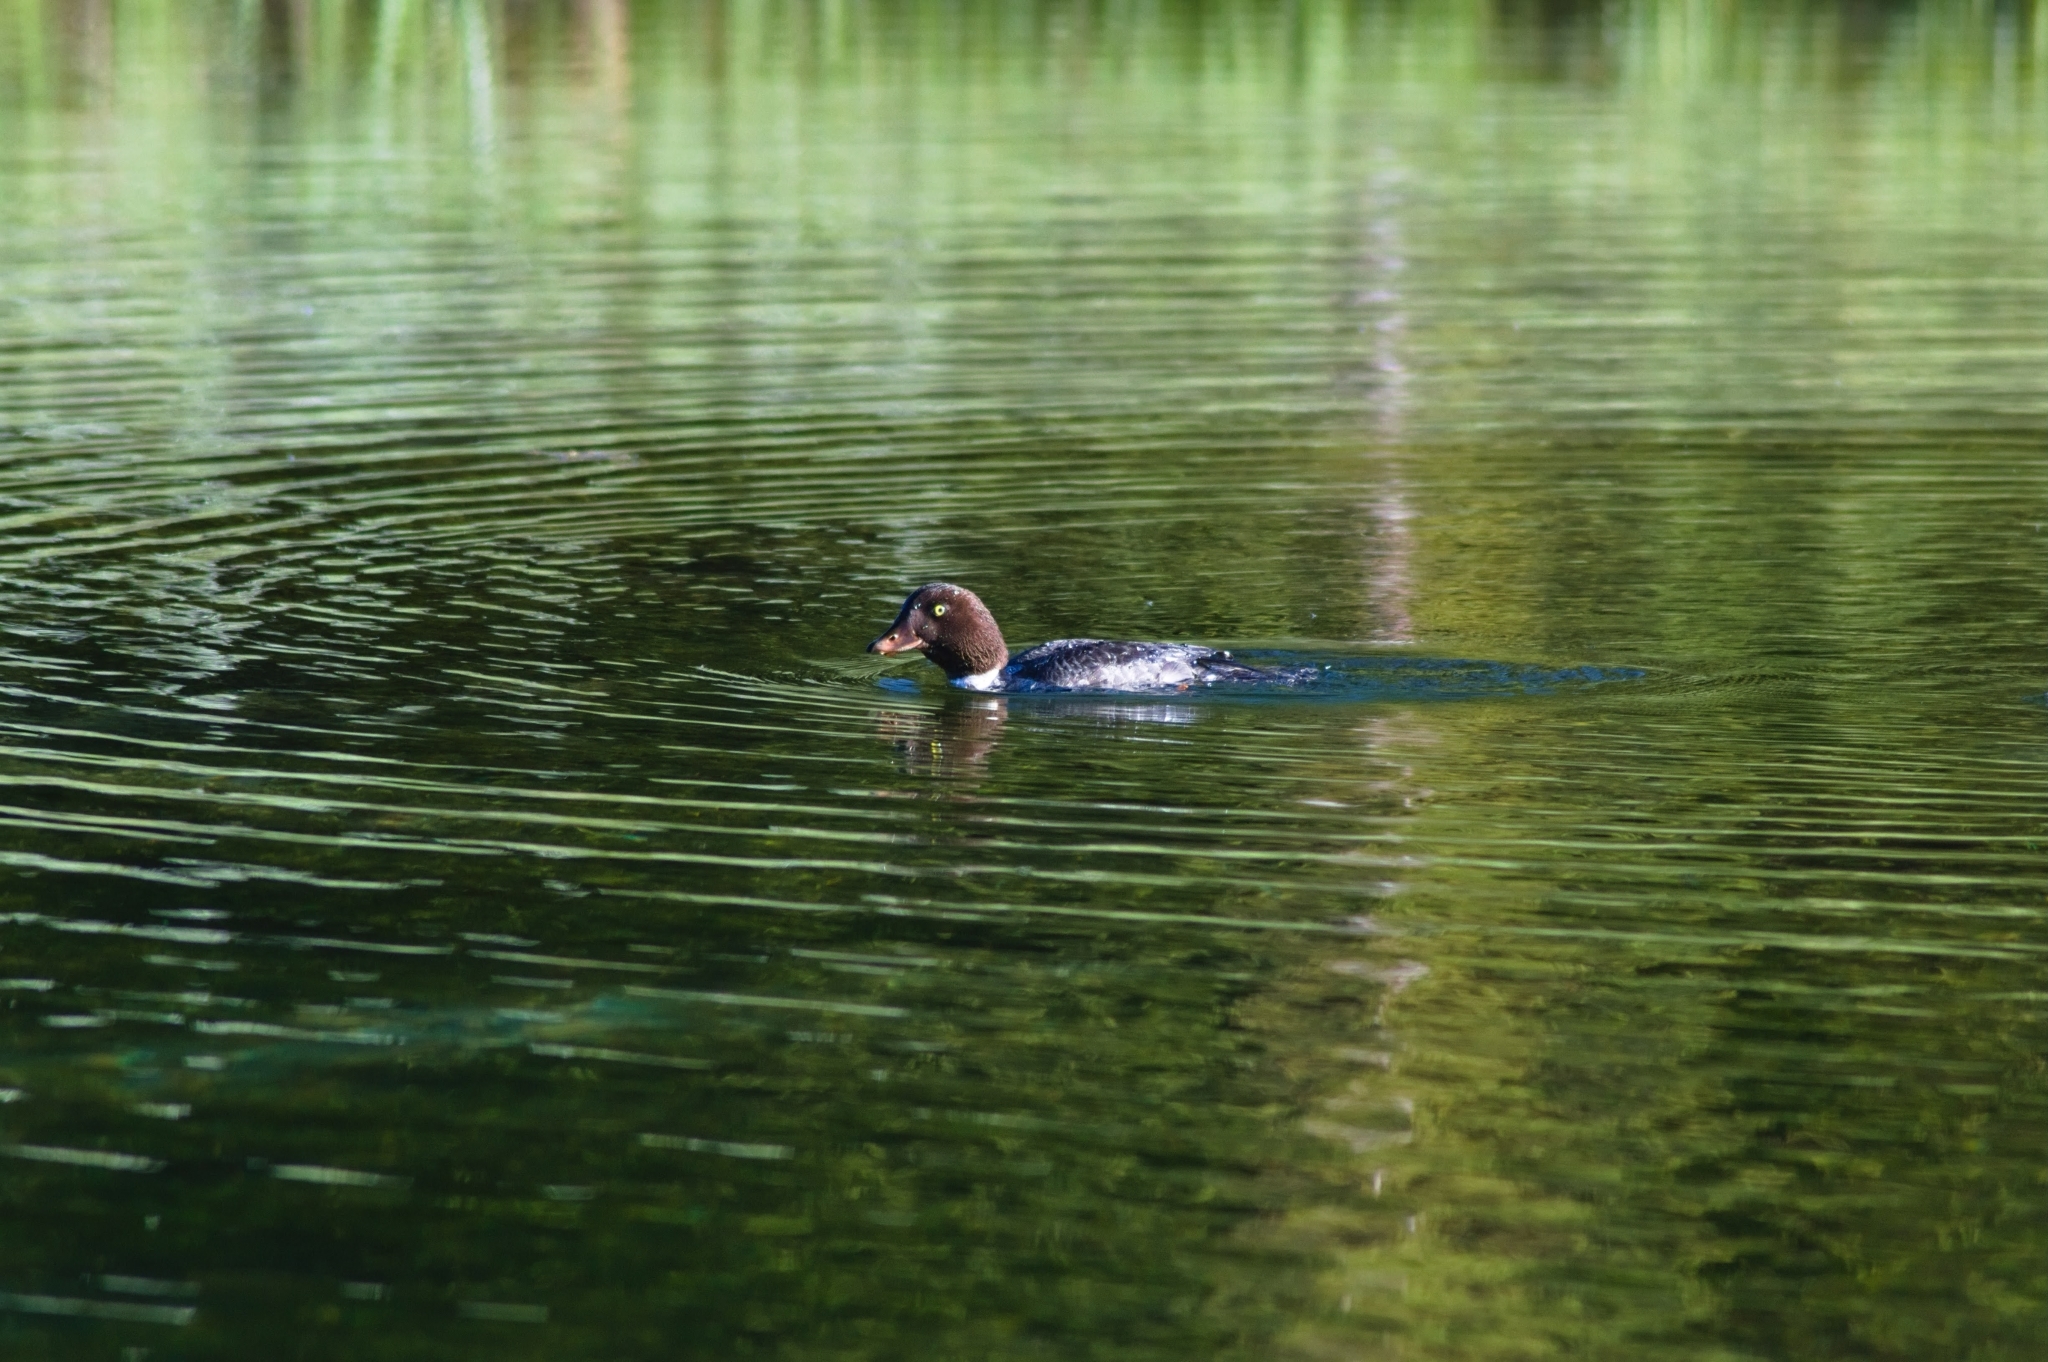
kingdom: Animalia
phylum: Chordata
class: Aves
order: Anseriformes
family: Anatidae
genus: Bucephala
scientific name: Bucephala islandica
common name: Barrow's goldeneye
